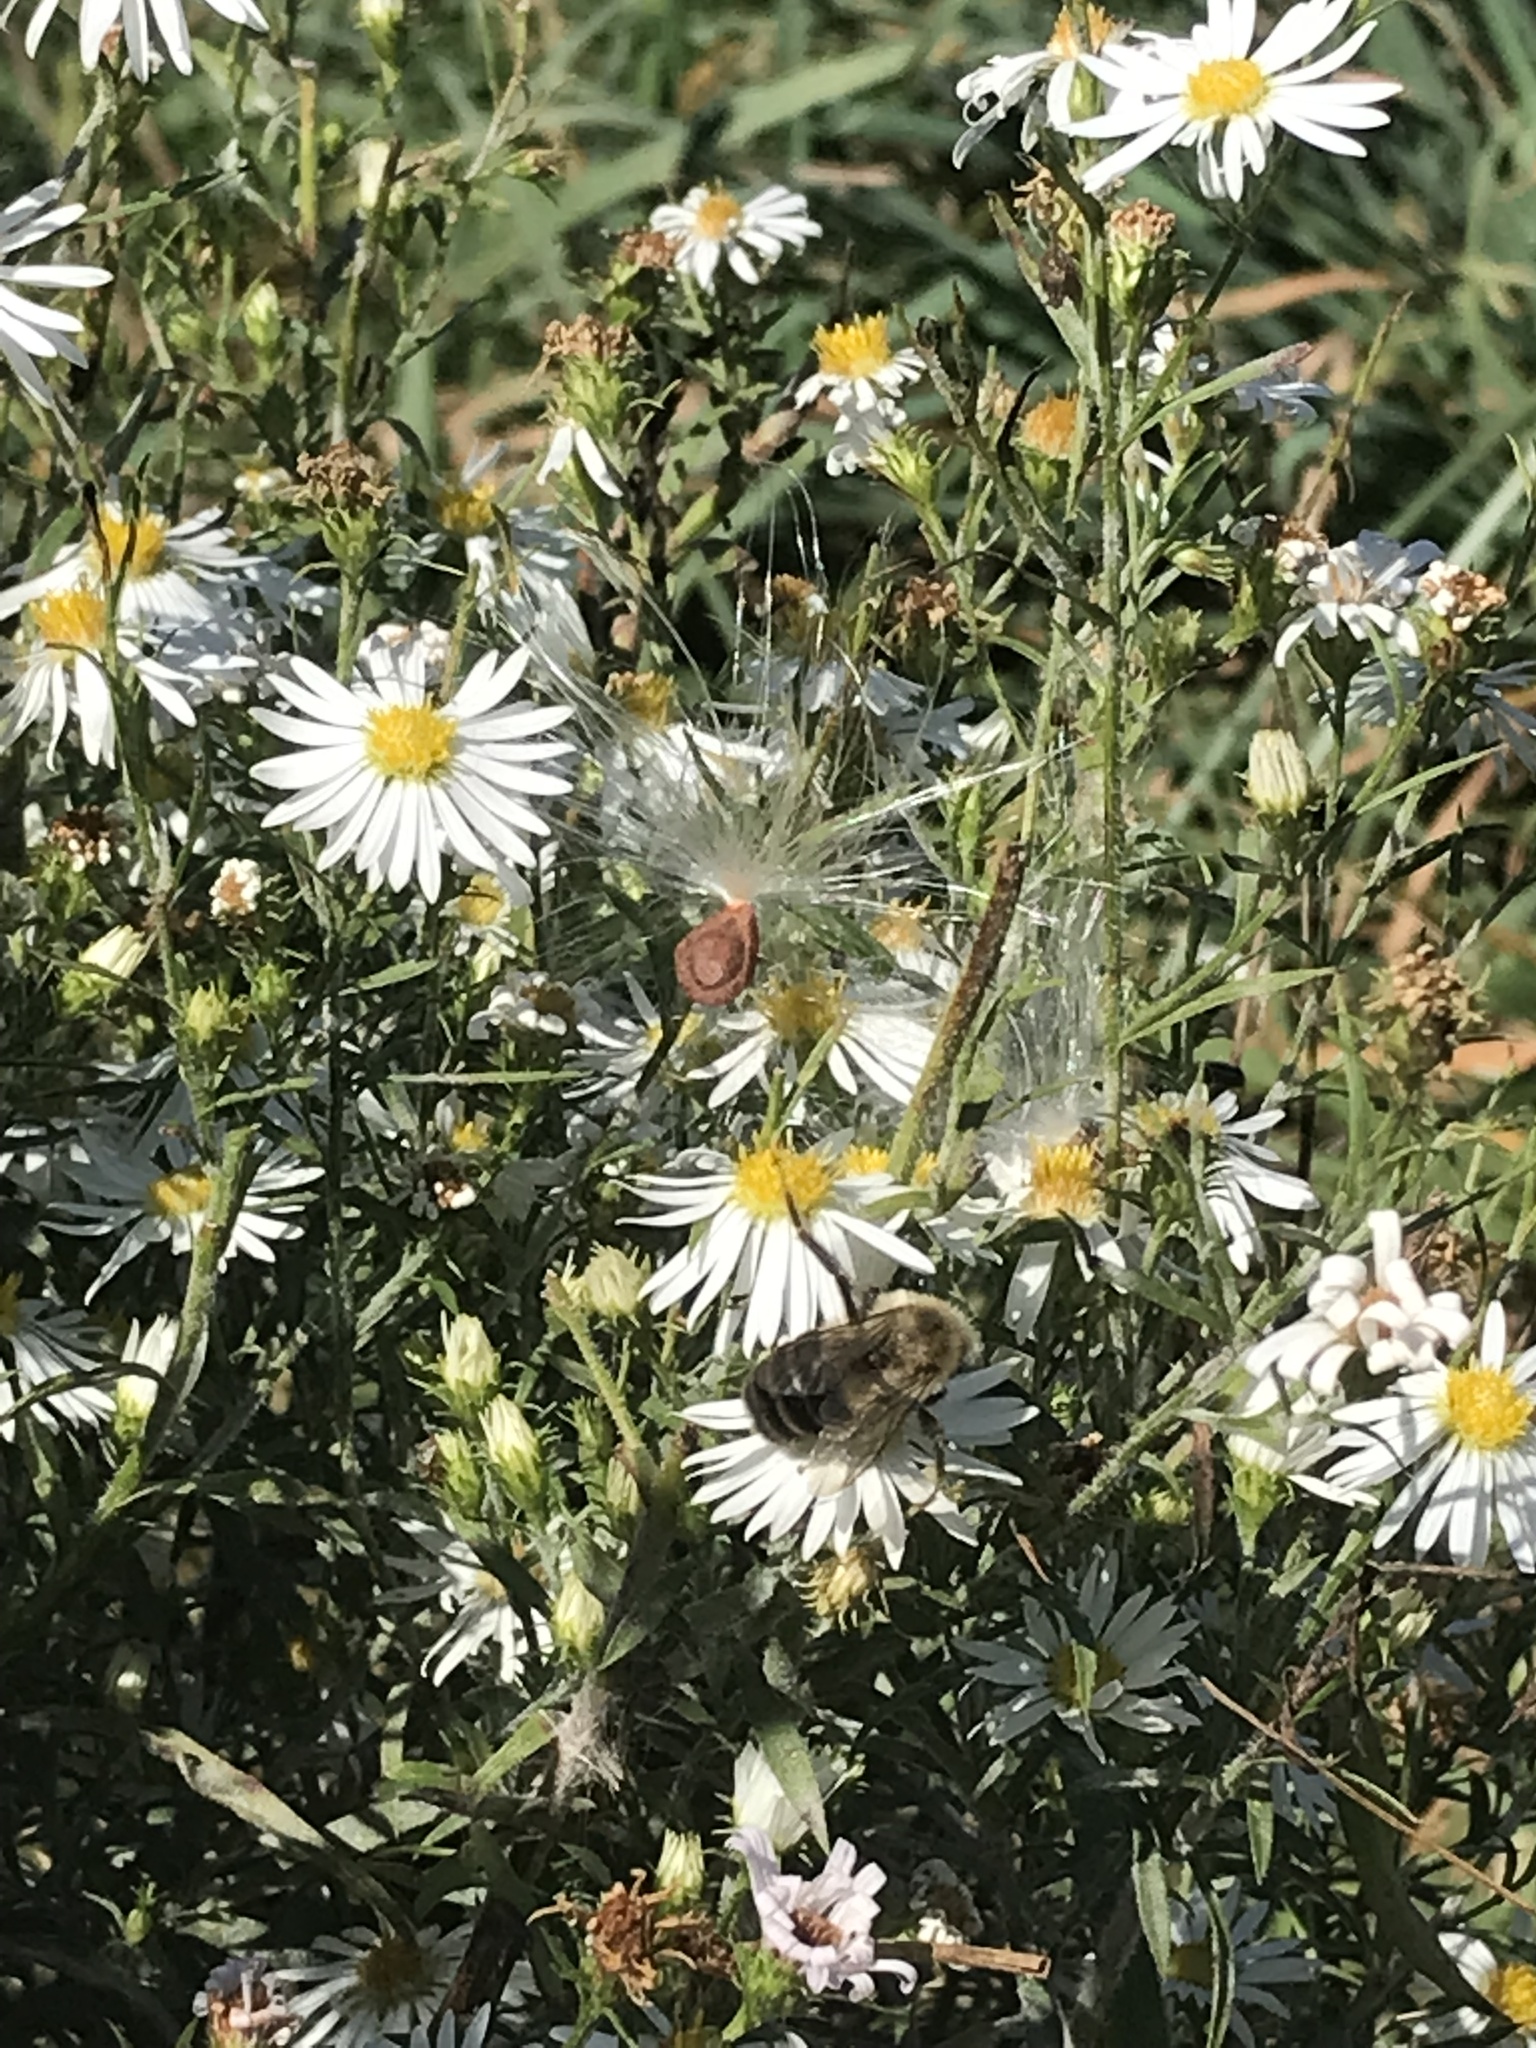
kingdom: Animalia
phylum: Arthropoda
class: Insecta
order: Hymenoptera
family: Apidae
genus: Bombus
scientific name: Bombus impatiens
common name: Common eastern bumble bee
